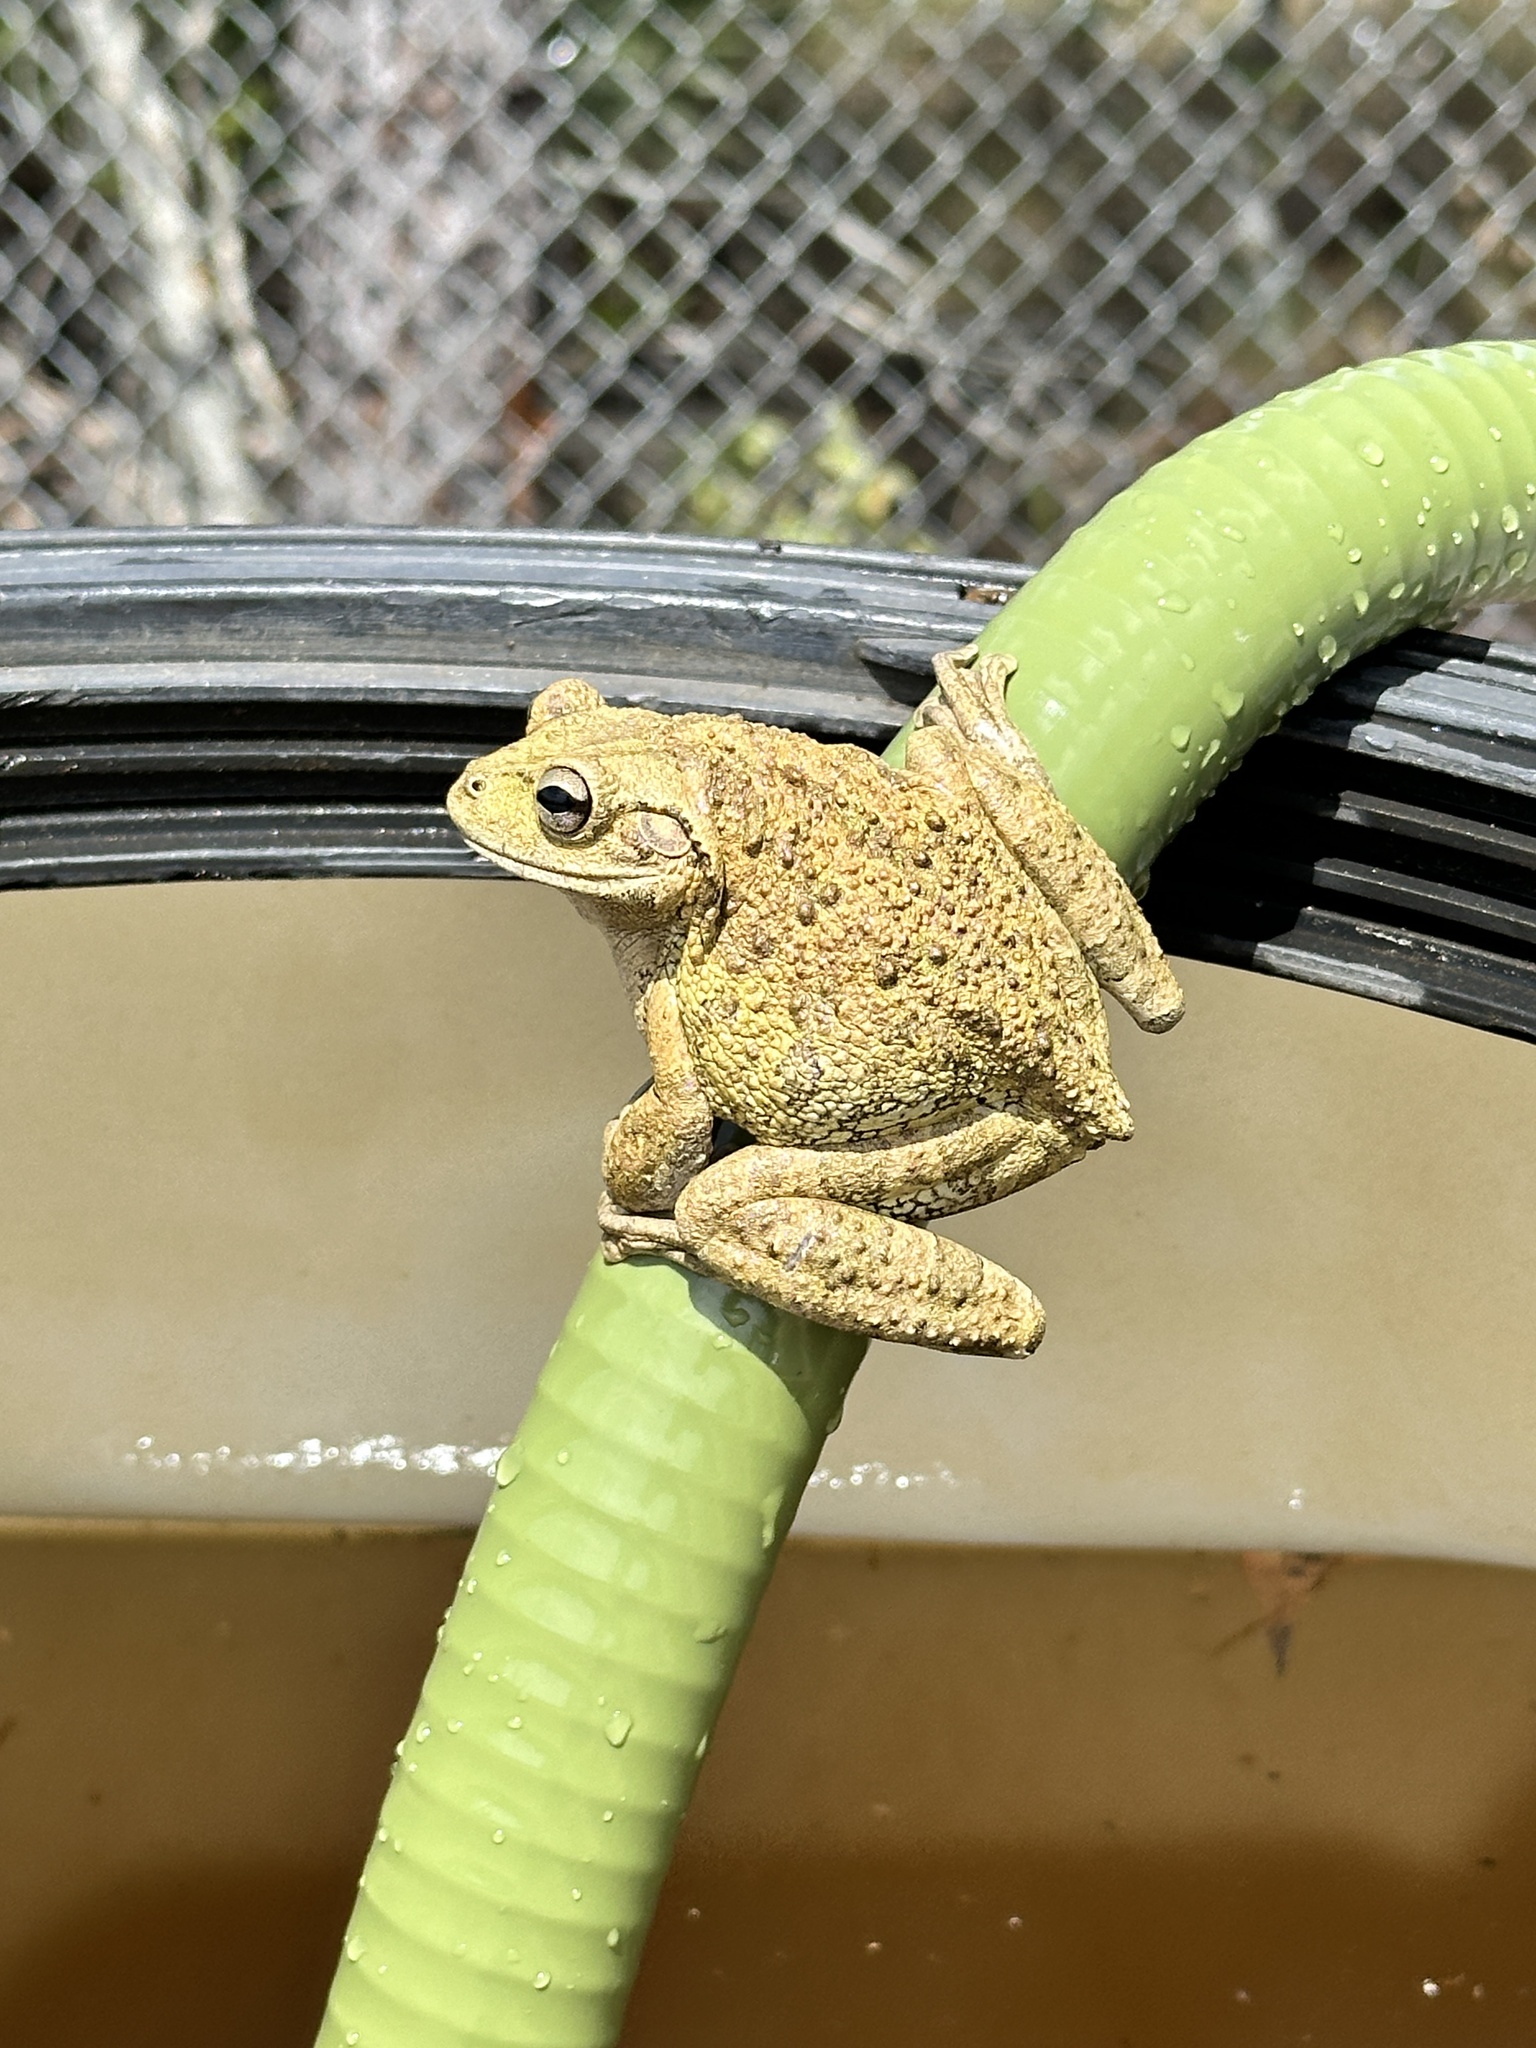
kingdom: Animalia
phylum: Chordata
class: Amphibia
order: Anura
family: Hylidae
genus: Osteopilus
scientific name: Osteopilus septentrionalis
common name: Cuban treefrog
